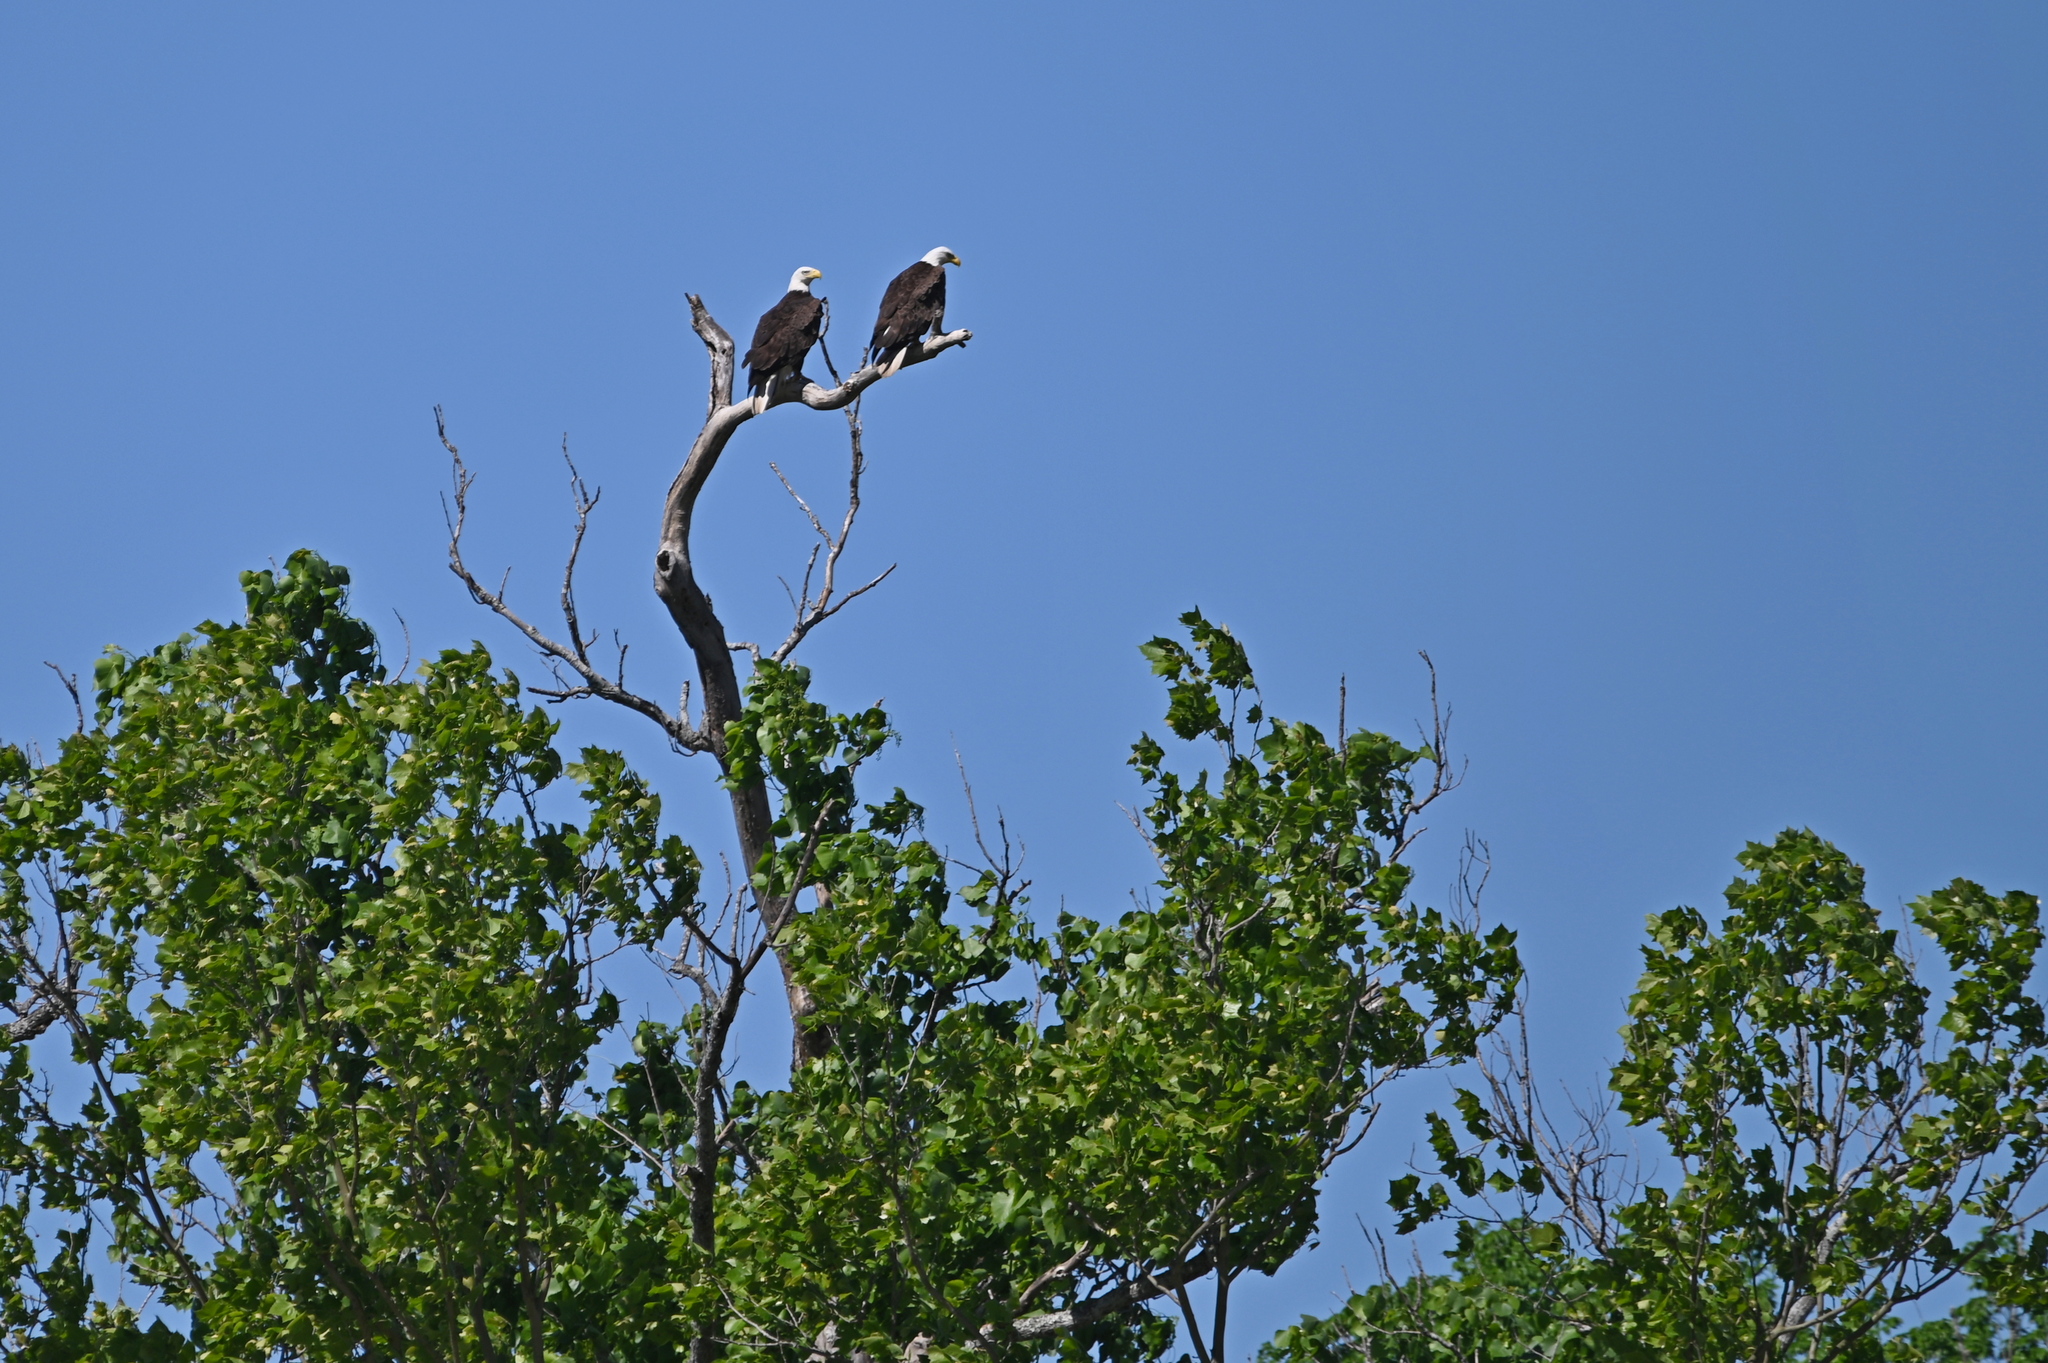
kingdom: Animalia
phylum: Chordata
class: Aves
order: Accipitriformes
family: Accipitridae
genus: Haliaeetus
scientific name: Haliaeetus leucocephalus
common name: Bald eagle
